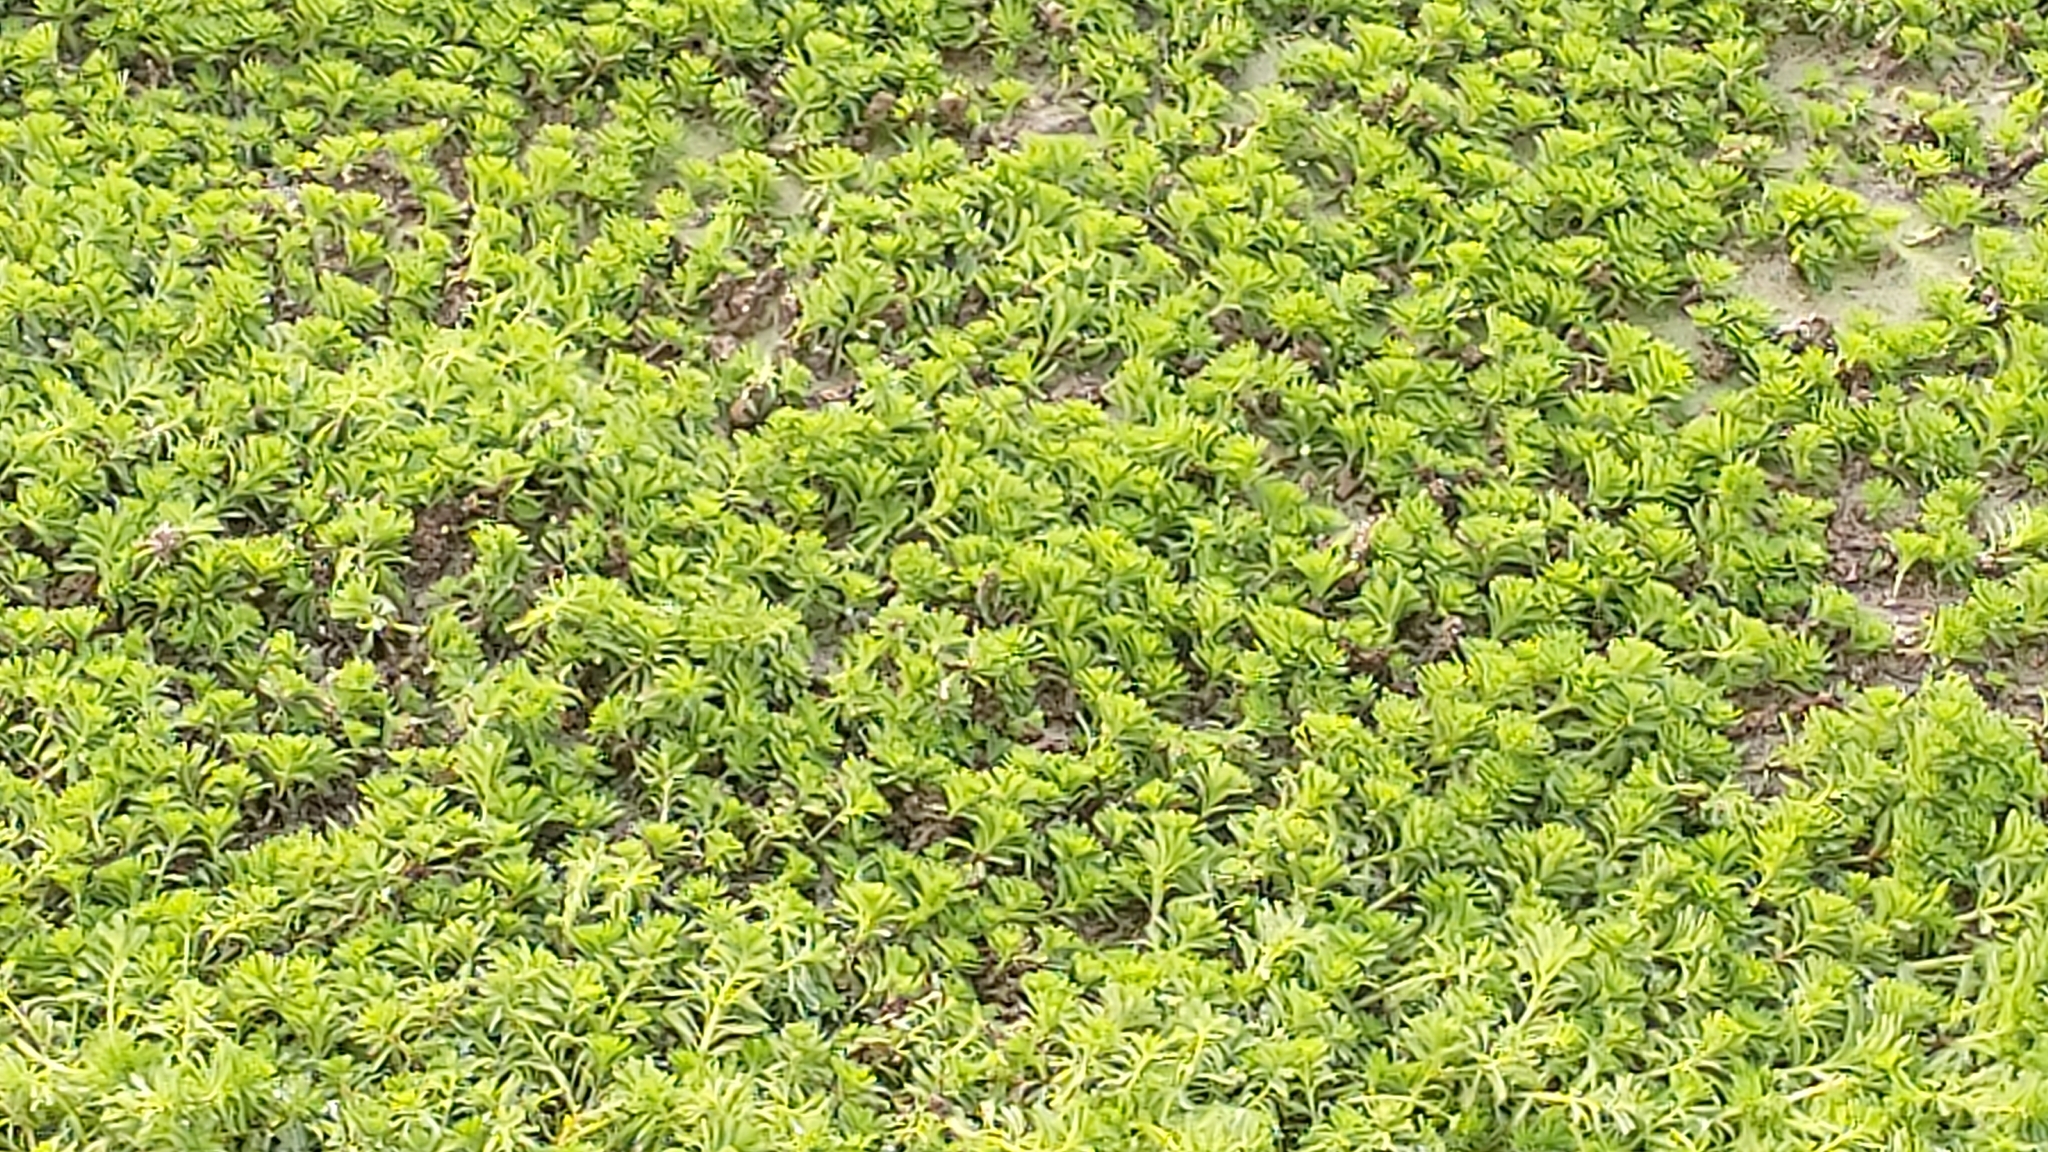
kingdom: Plantae
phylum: Tracheophyta
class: Magnoliopsida
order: Saxifragales
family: Haloragaceae
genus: Myriophyllum
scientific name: Myriophyllum aquaticum
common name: Parrot's feather
